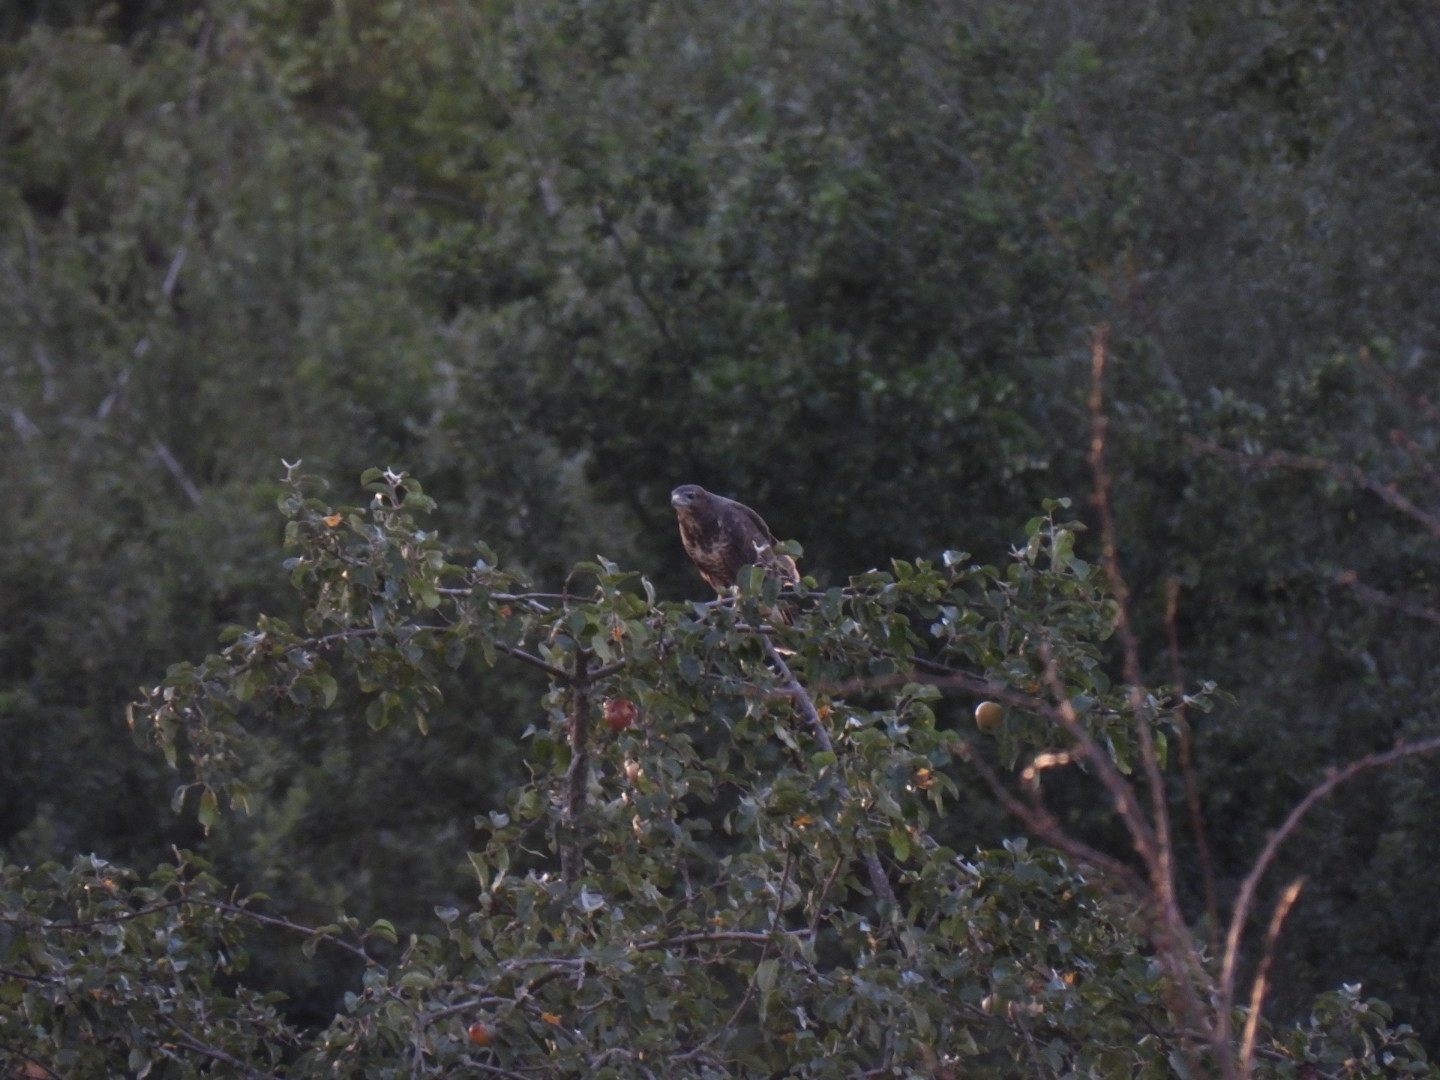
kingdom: Animalia
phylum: Chordata
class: Aves
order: Accipitriformes
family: Accipitridae
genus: Buteo
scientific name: Buteo buteo
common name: Common buzzard
